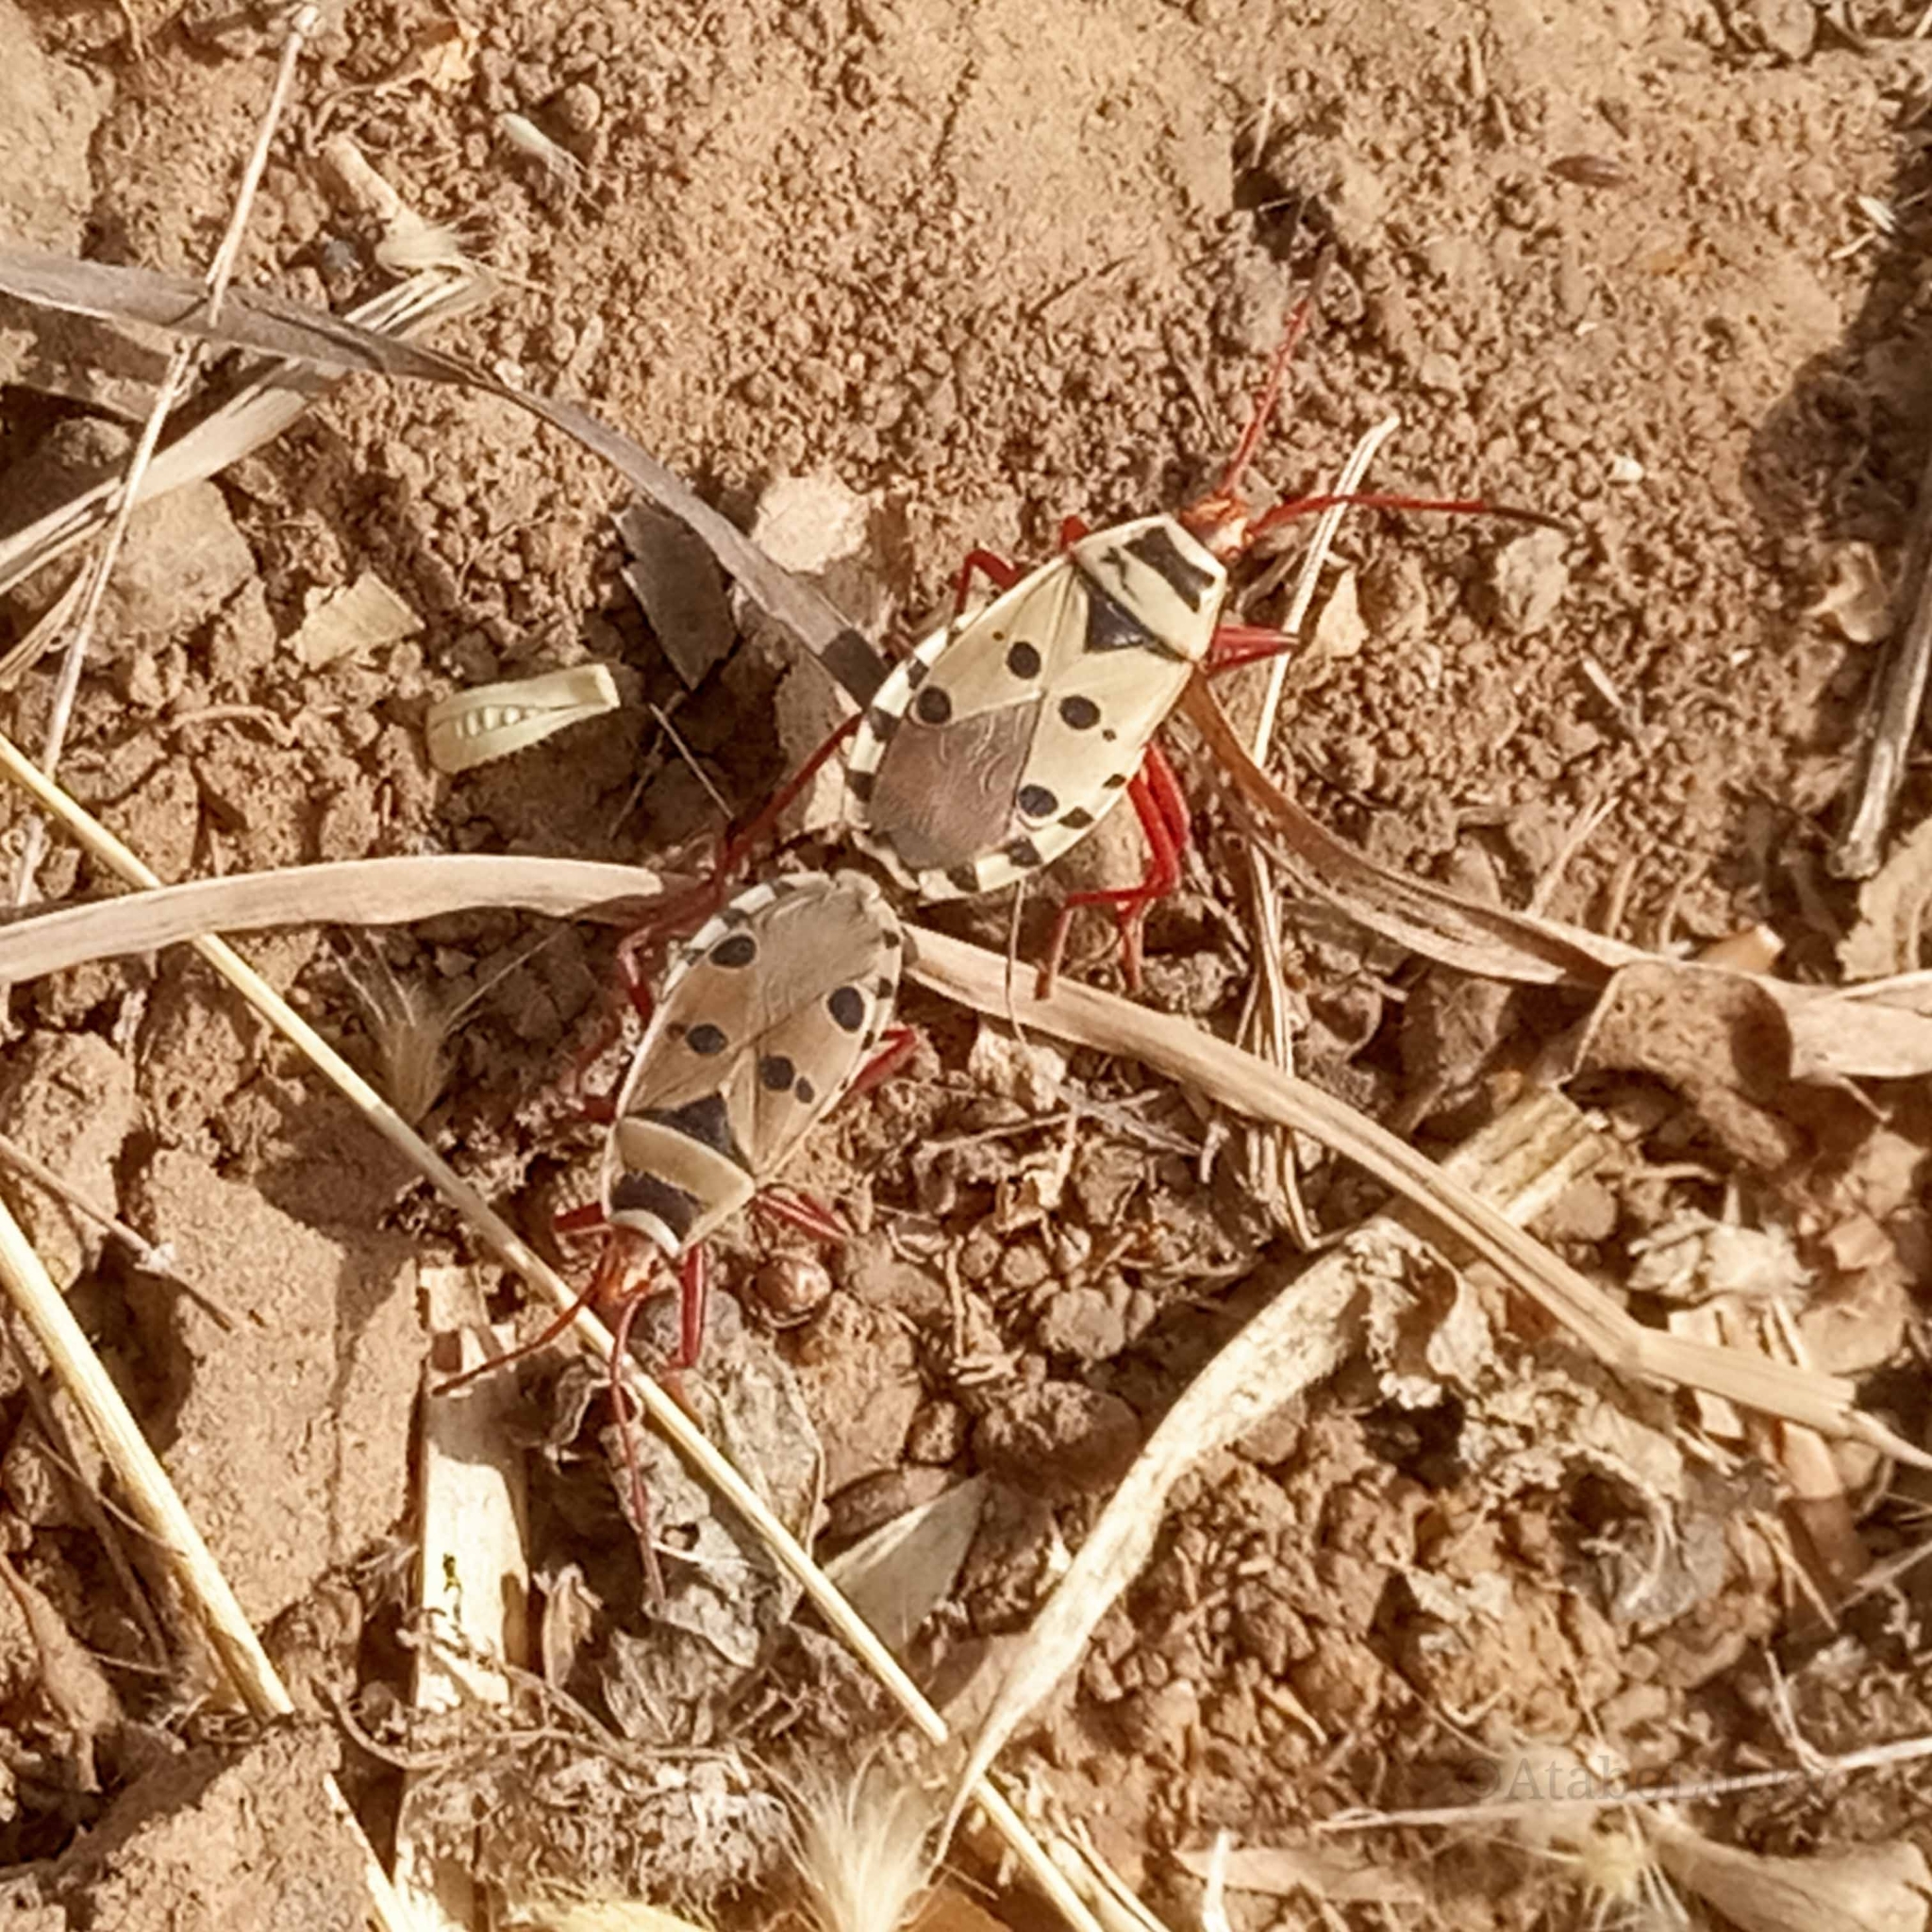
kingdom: Animalia
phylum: Arthropoda
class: Insecta
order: Hemiptera
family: Pyrrhocoridae
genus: Probergrothius
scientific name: Probergrothius sexpunctatus
